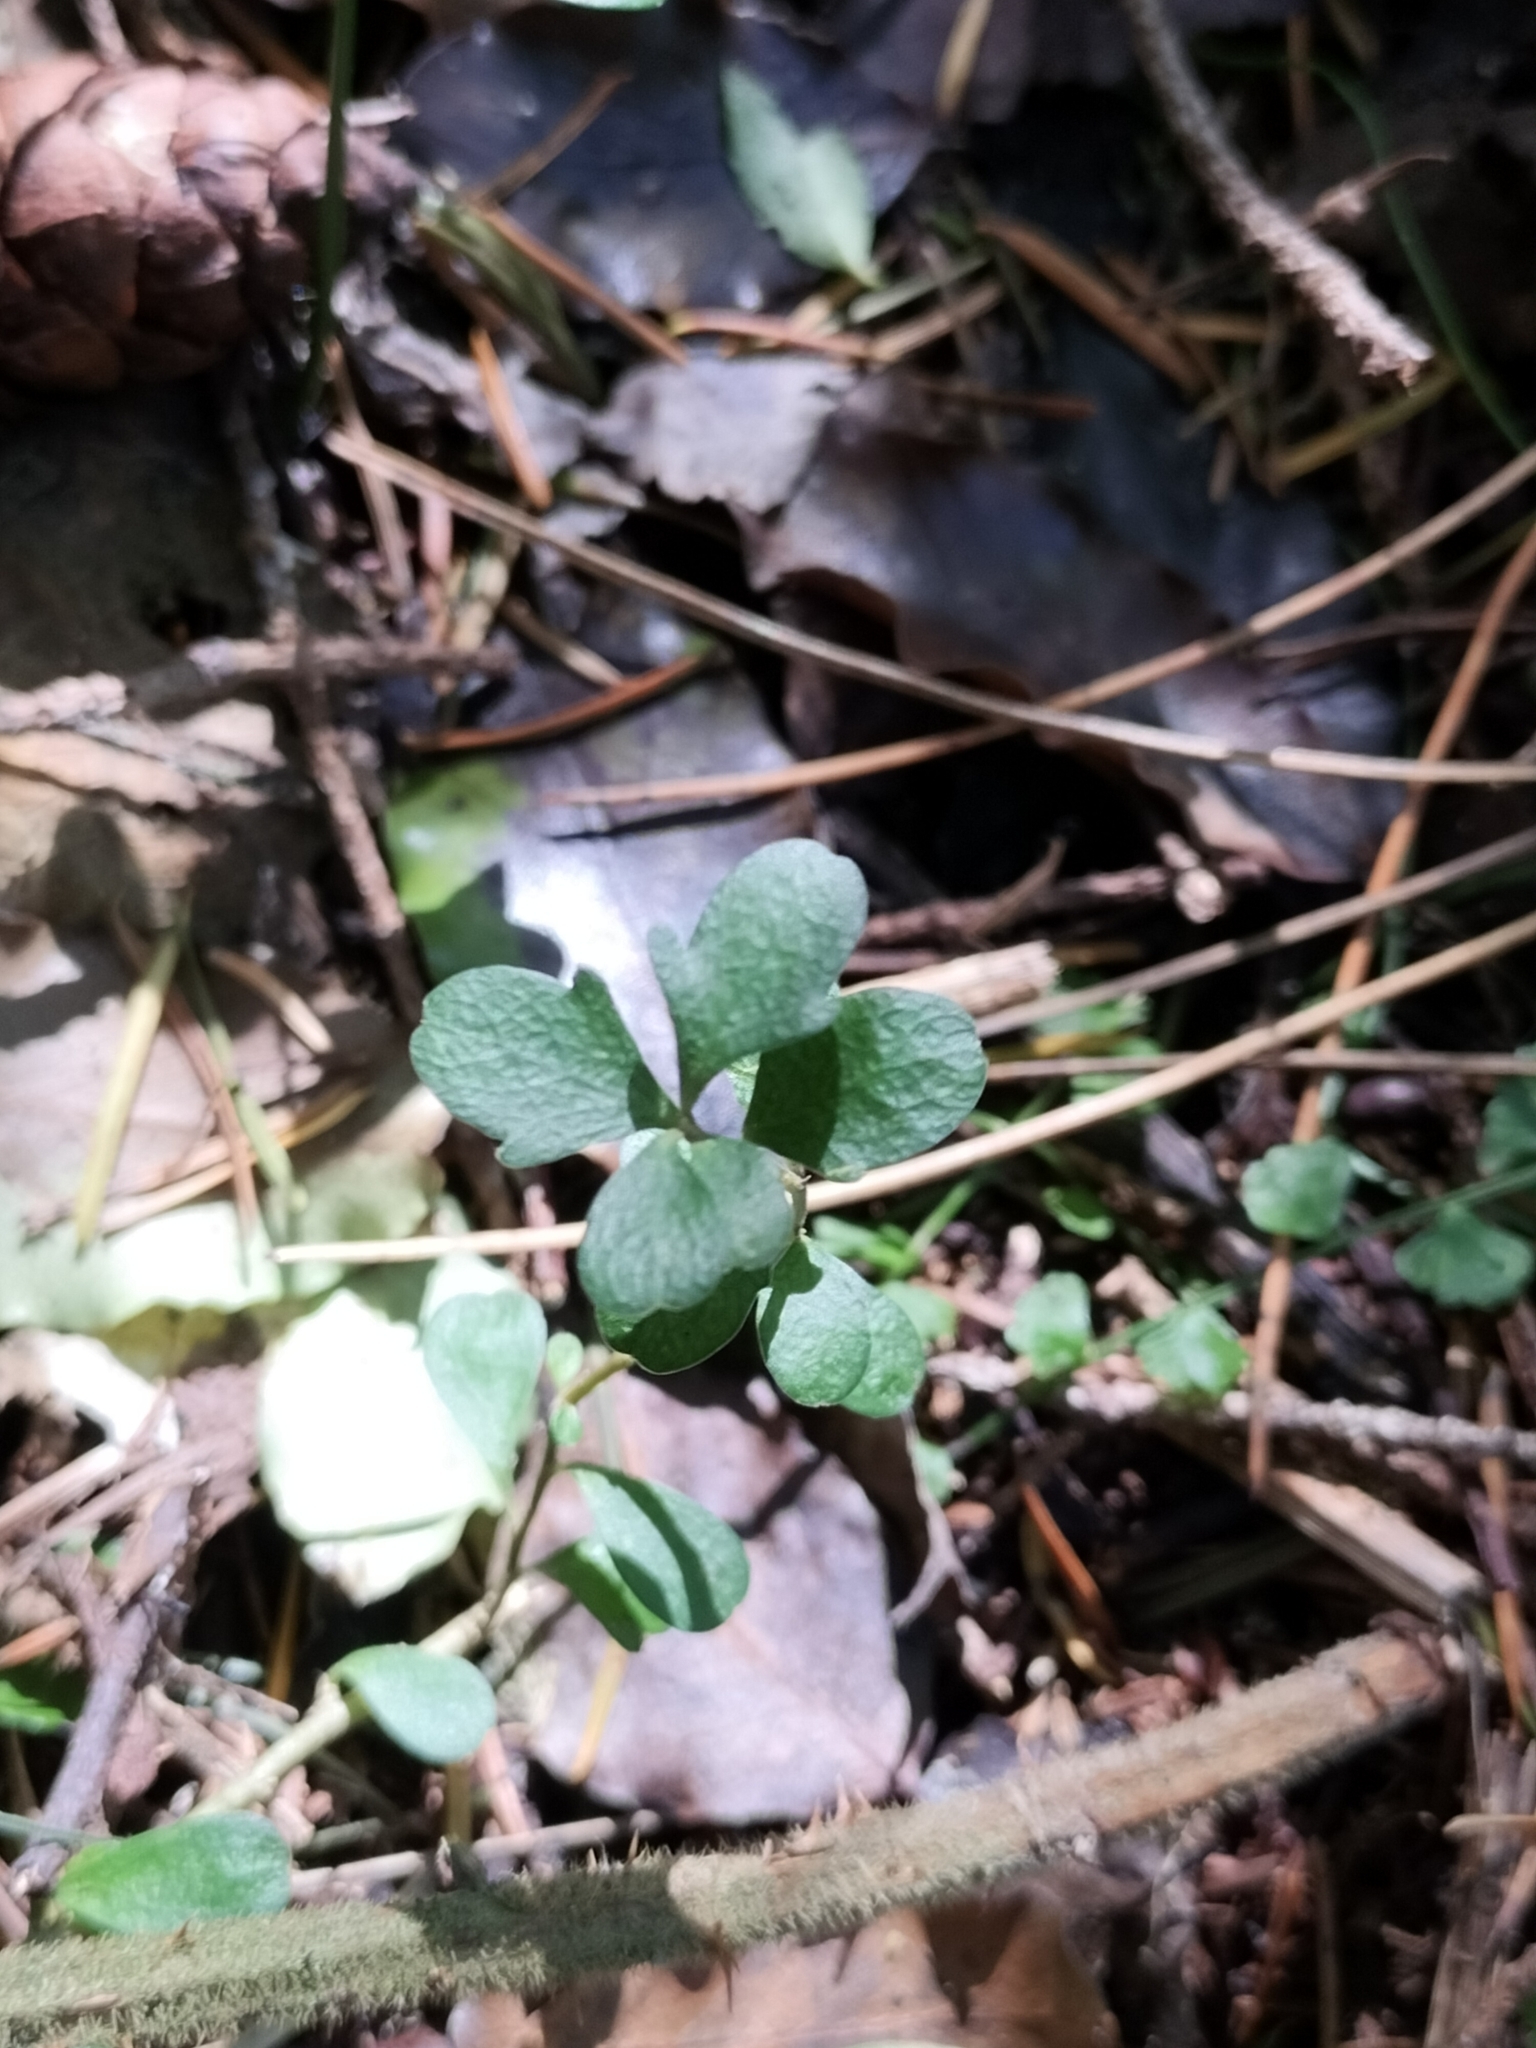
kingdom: Plantae
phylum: Tracheophyta
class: Magnoliopsida
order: Malpighiales
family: Violaceae
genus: Melicytus
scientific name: Melicytus alpinus
